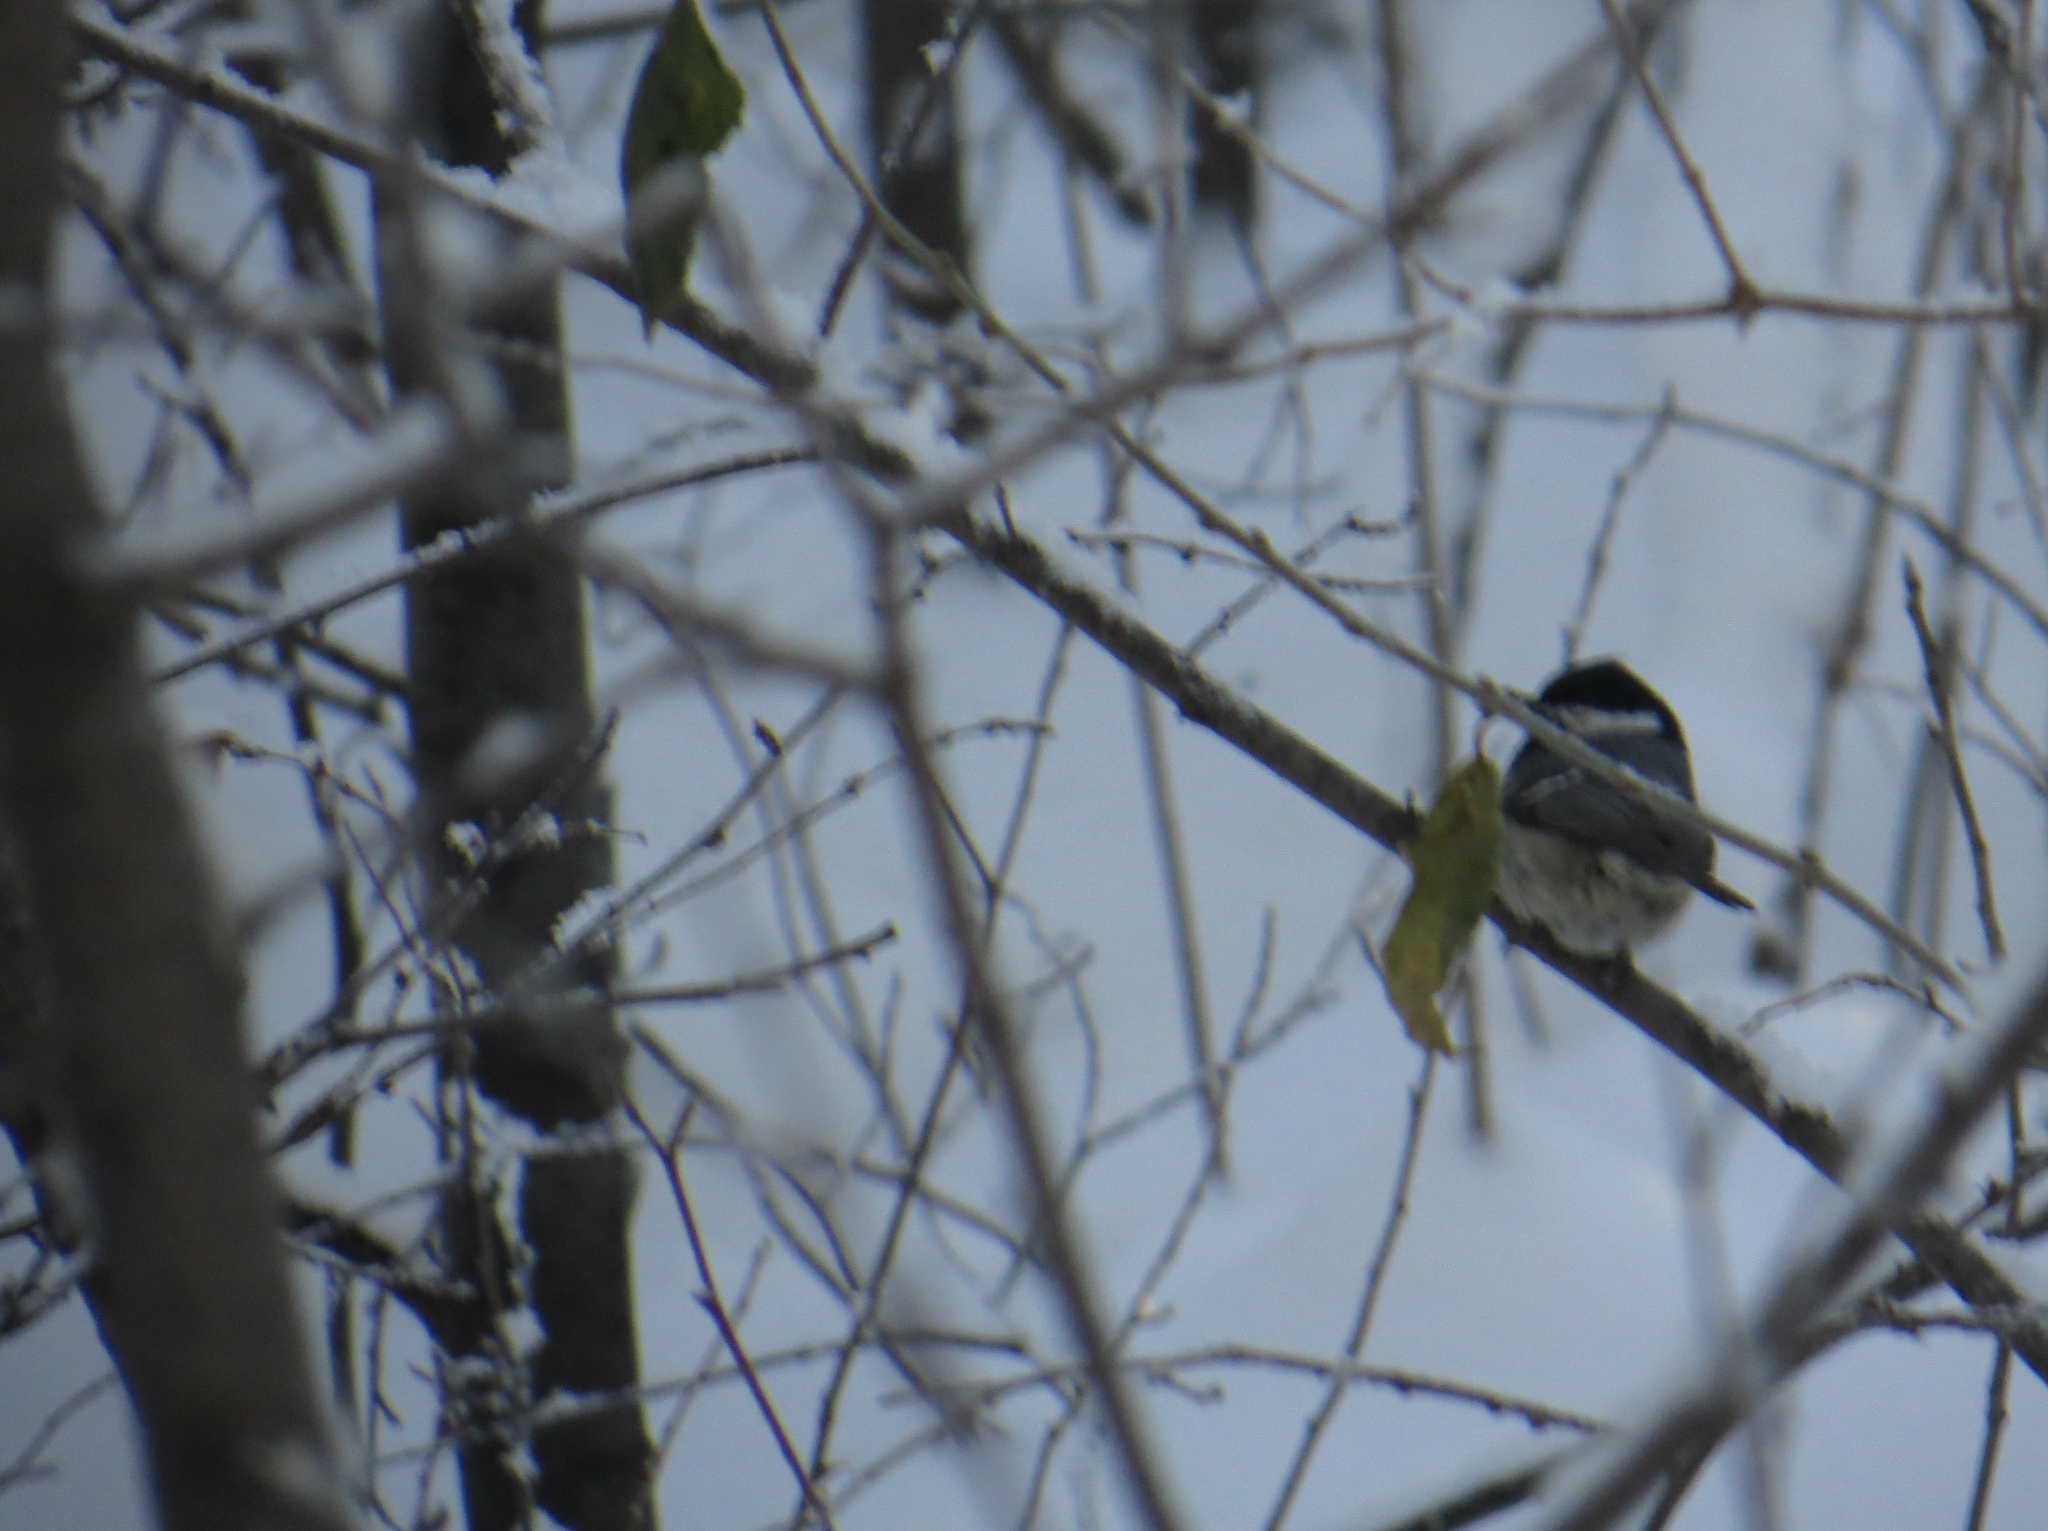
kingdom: Animalia
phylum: Chordata
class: Aves
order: Passeriformes
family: Paridae
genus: Periparus
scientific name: Periparus ater
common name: Coal tit
